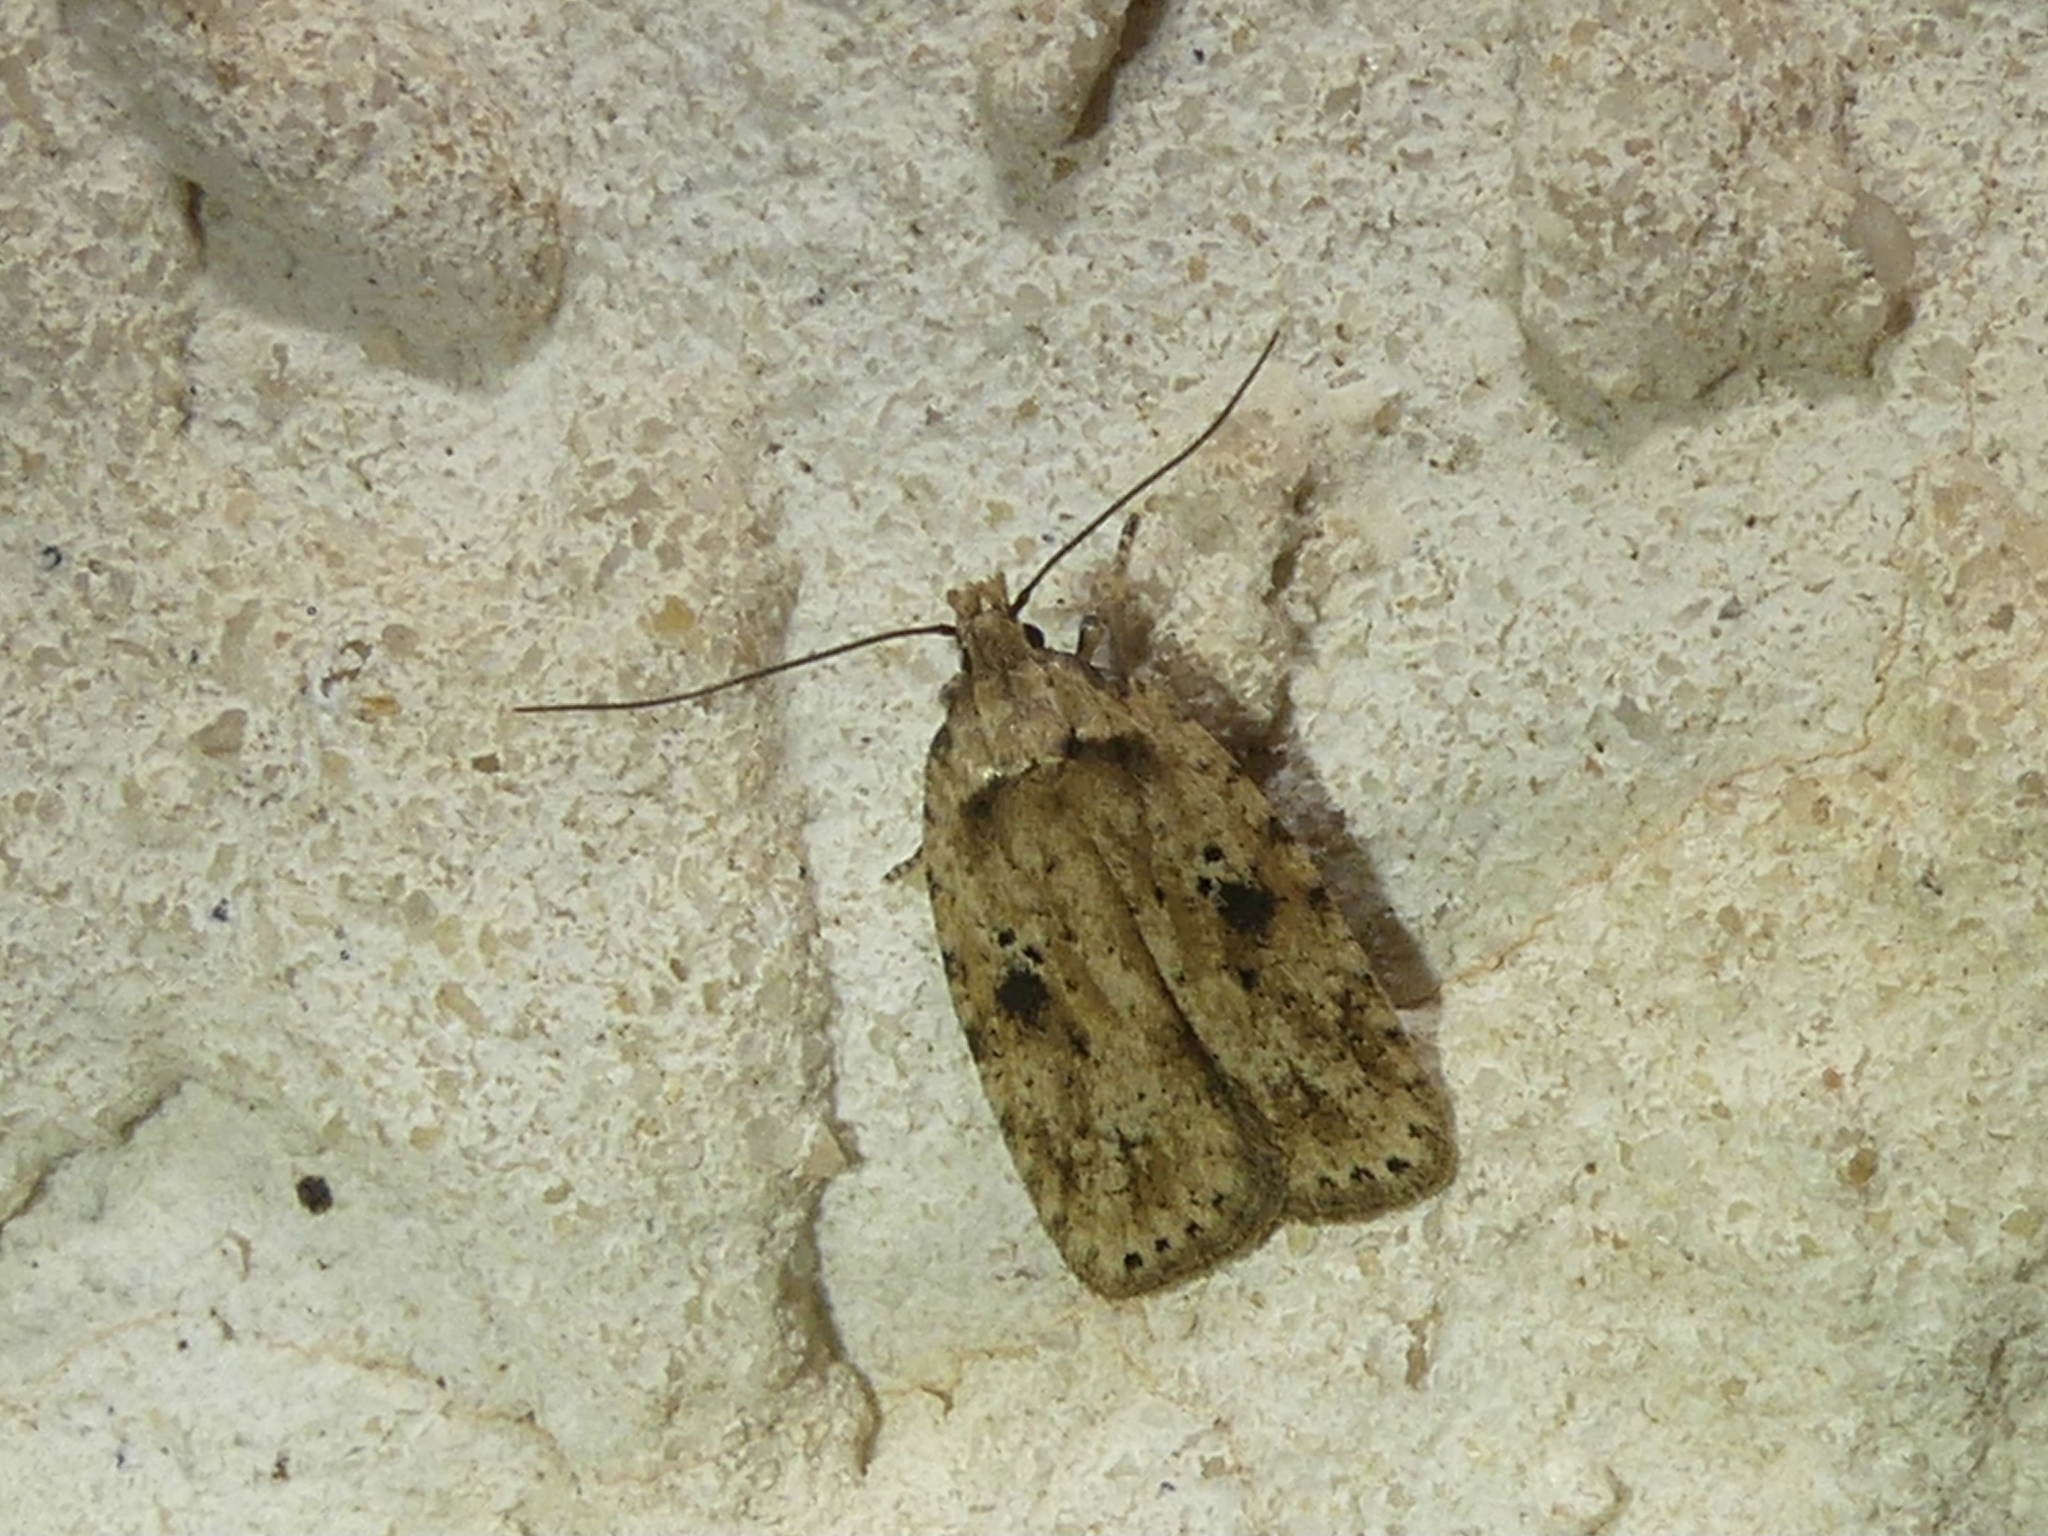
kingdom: Animalia
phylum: Arthropoda
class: Insecta
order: Lepidoptera
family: Depressariidae
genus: Agonopterix
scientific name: Agonopterix arenella
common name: Brindled flat-body
